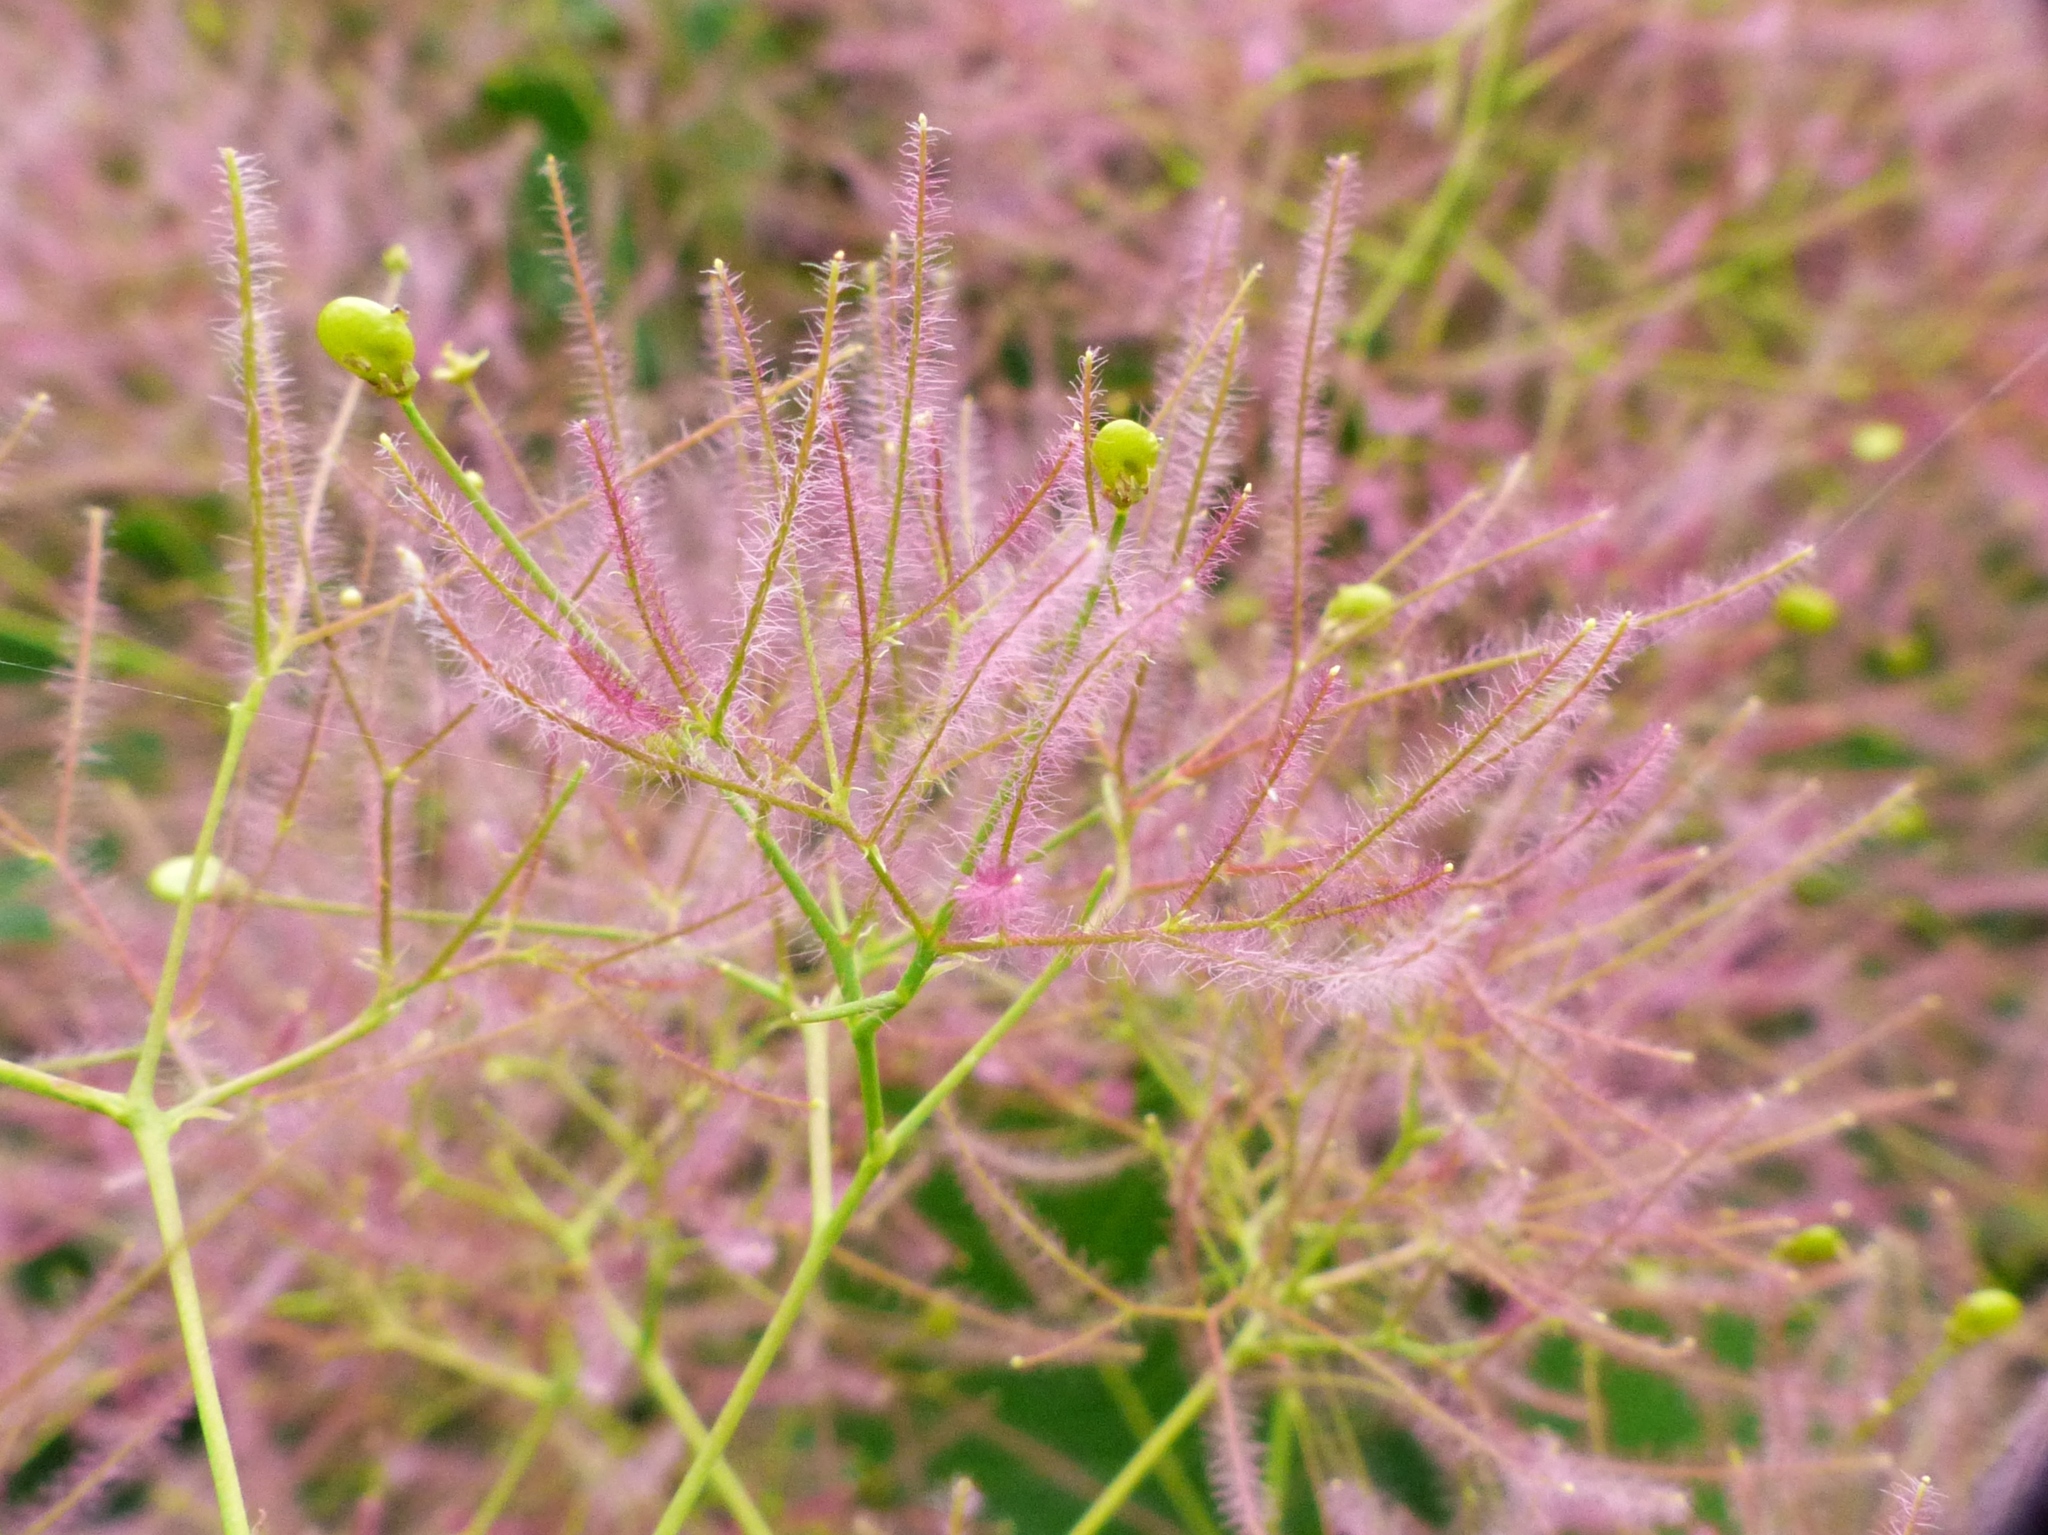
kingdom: Plantae
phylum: Tracheophyta
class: Magnoliopsida
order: Sapindales
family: Anacardiaceae
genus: Cotinus
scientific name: Cotinus coggygria
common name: Smoke-tree
